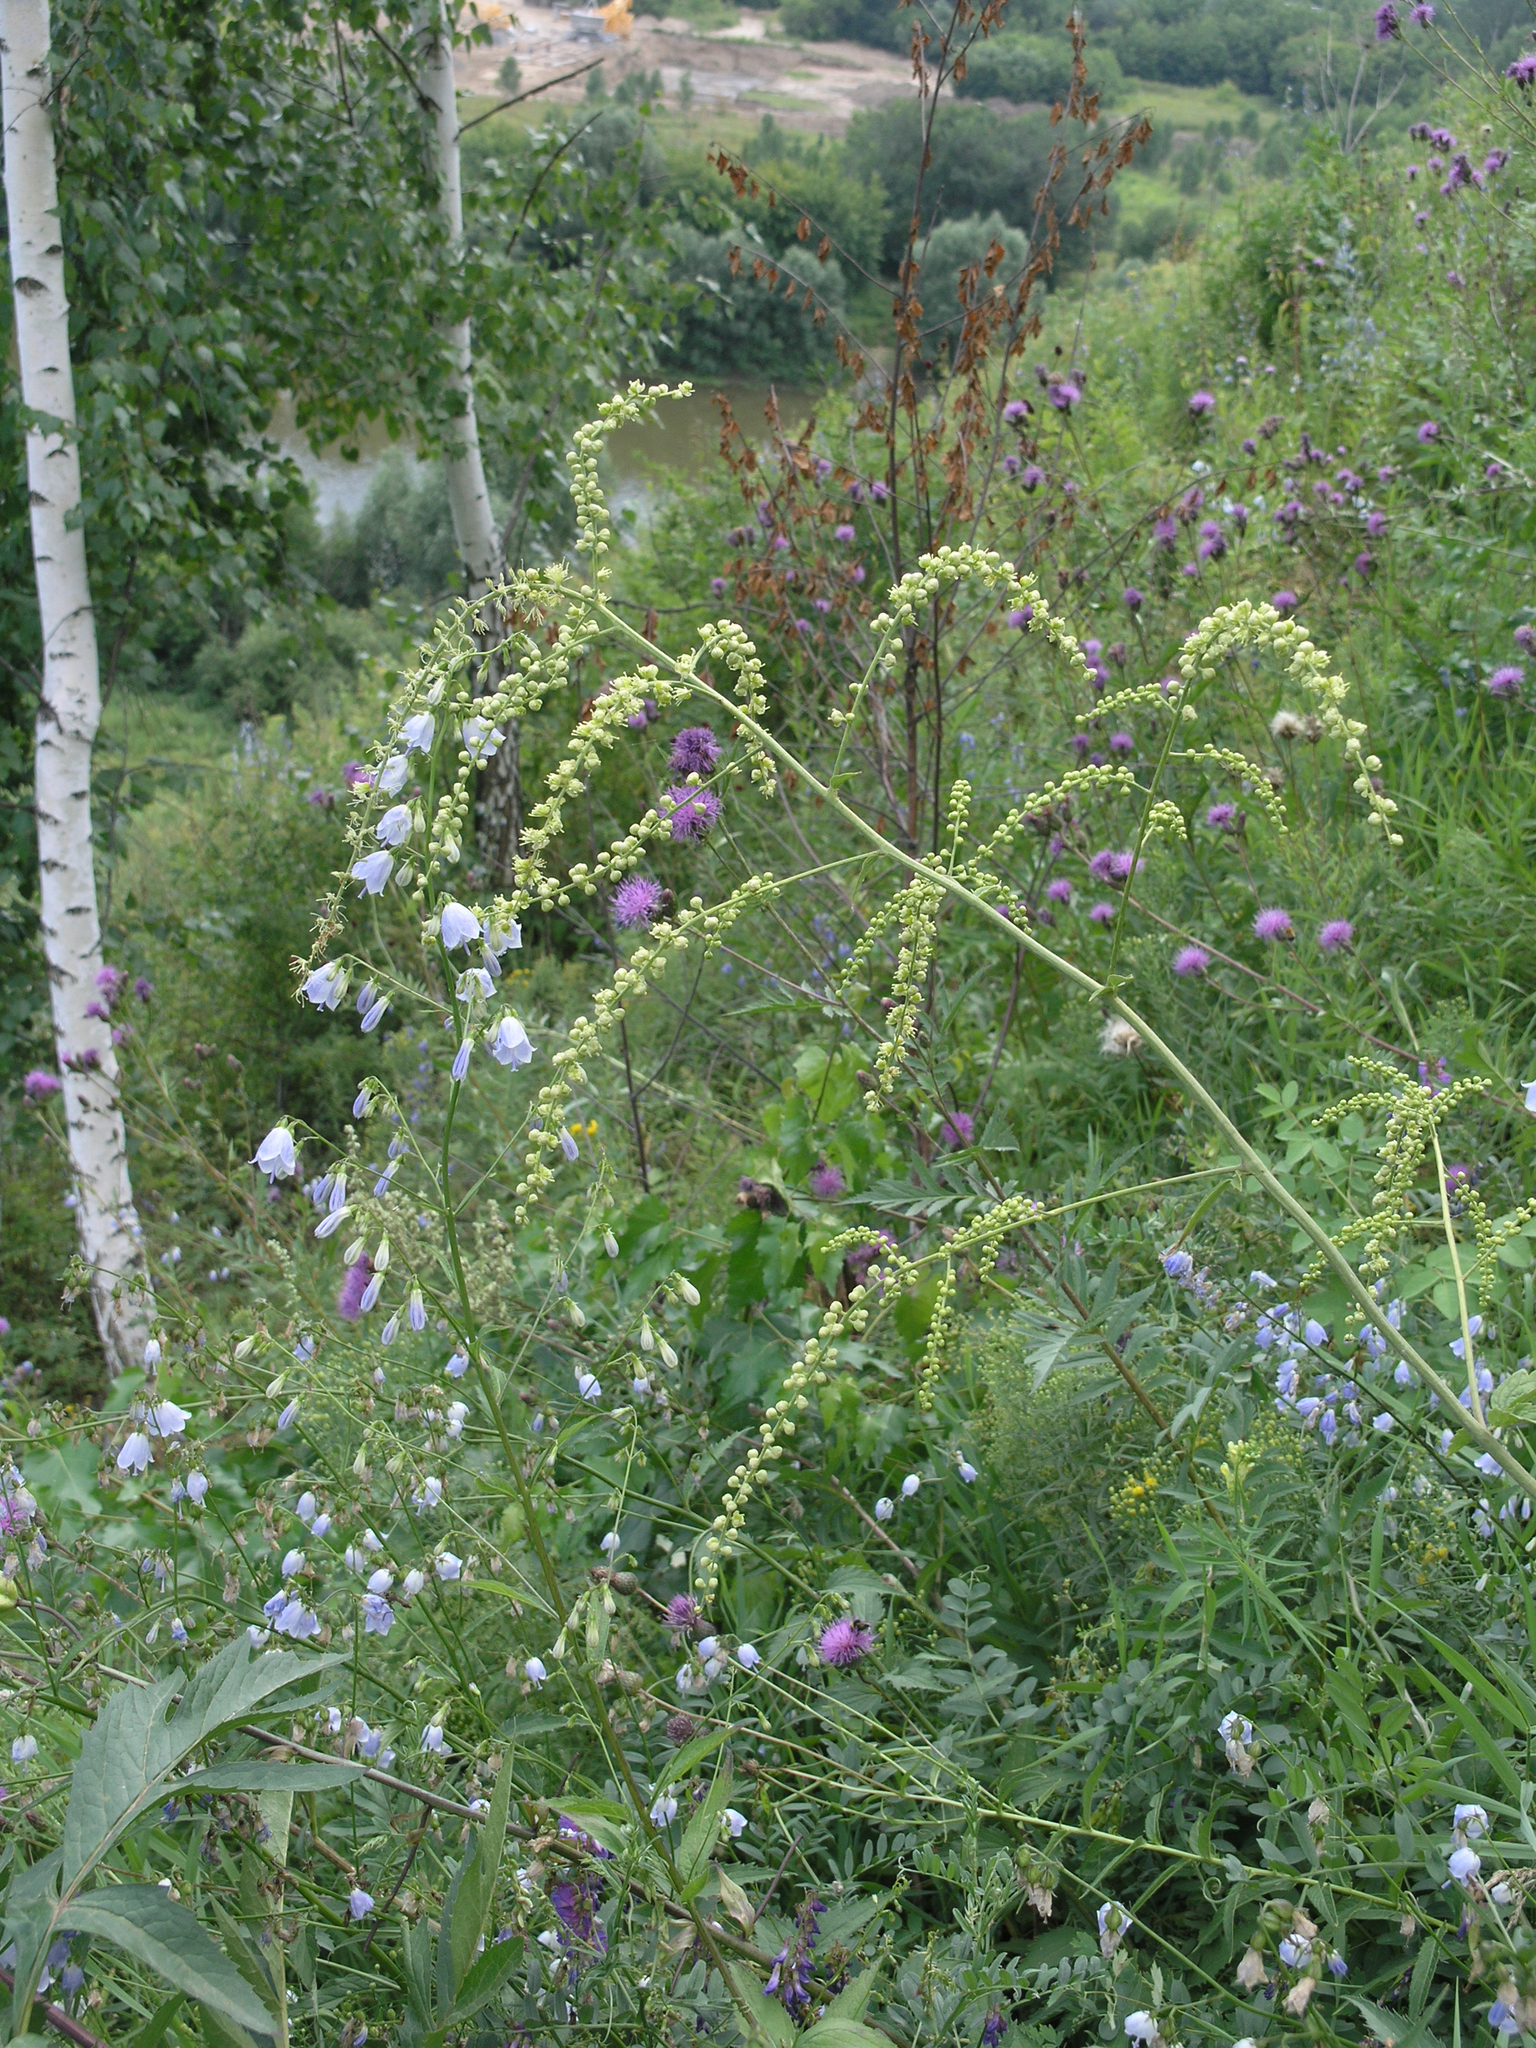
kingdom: Plantae
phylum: Tracheophyta
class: Magnoliopsida
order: Ranunculales
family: Ranunculaceae
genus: Actaea
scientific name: Actaea cimicifuga
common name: Chinese cimicifuga
